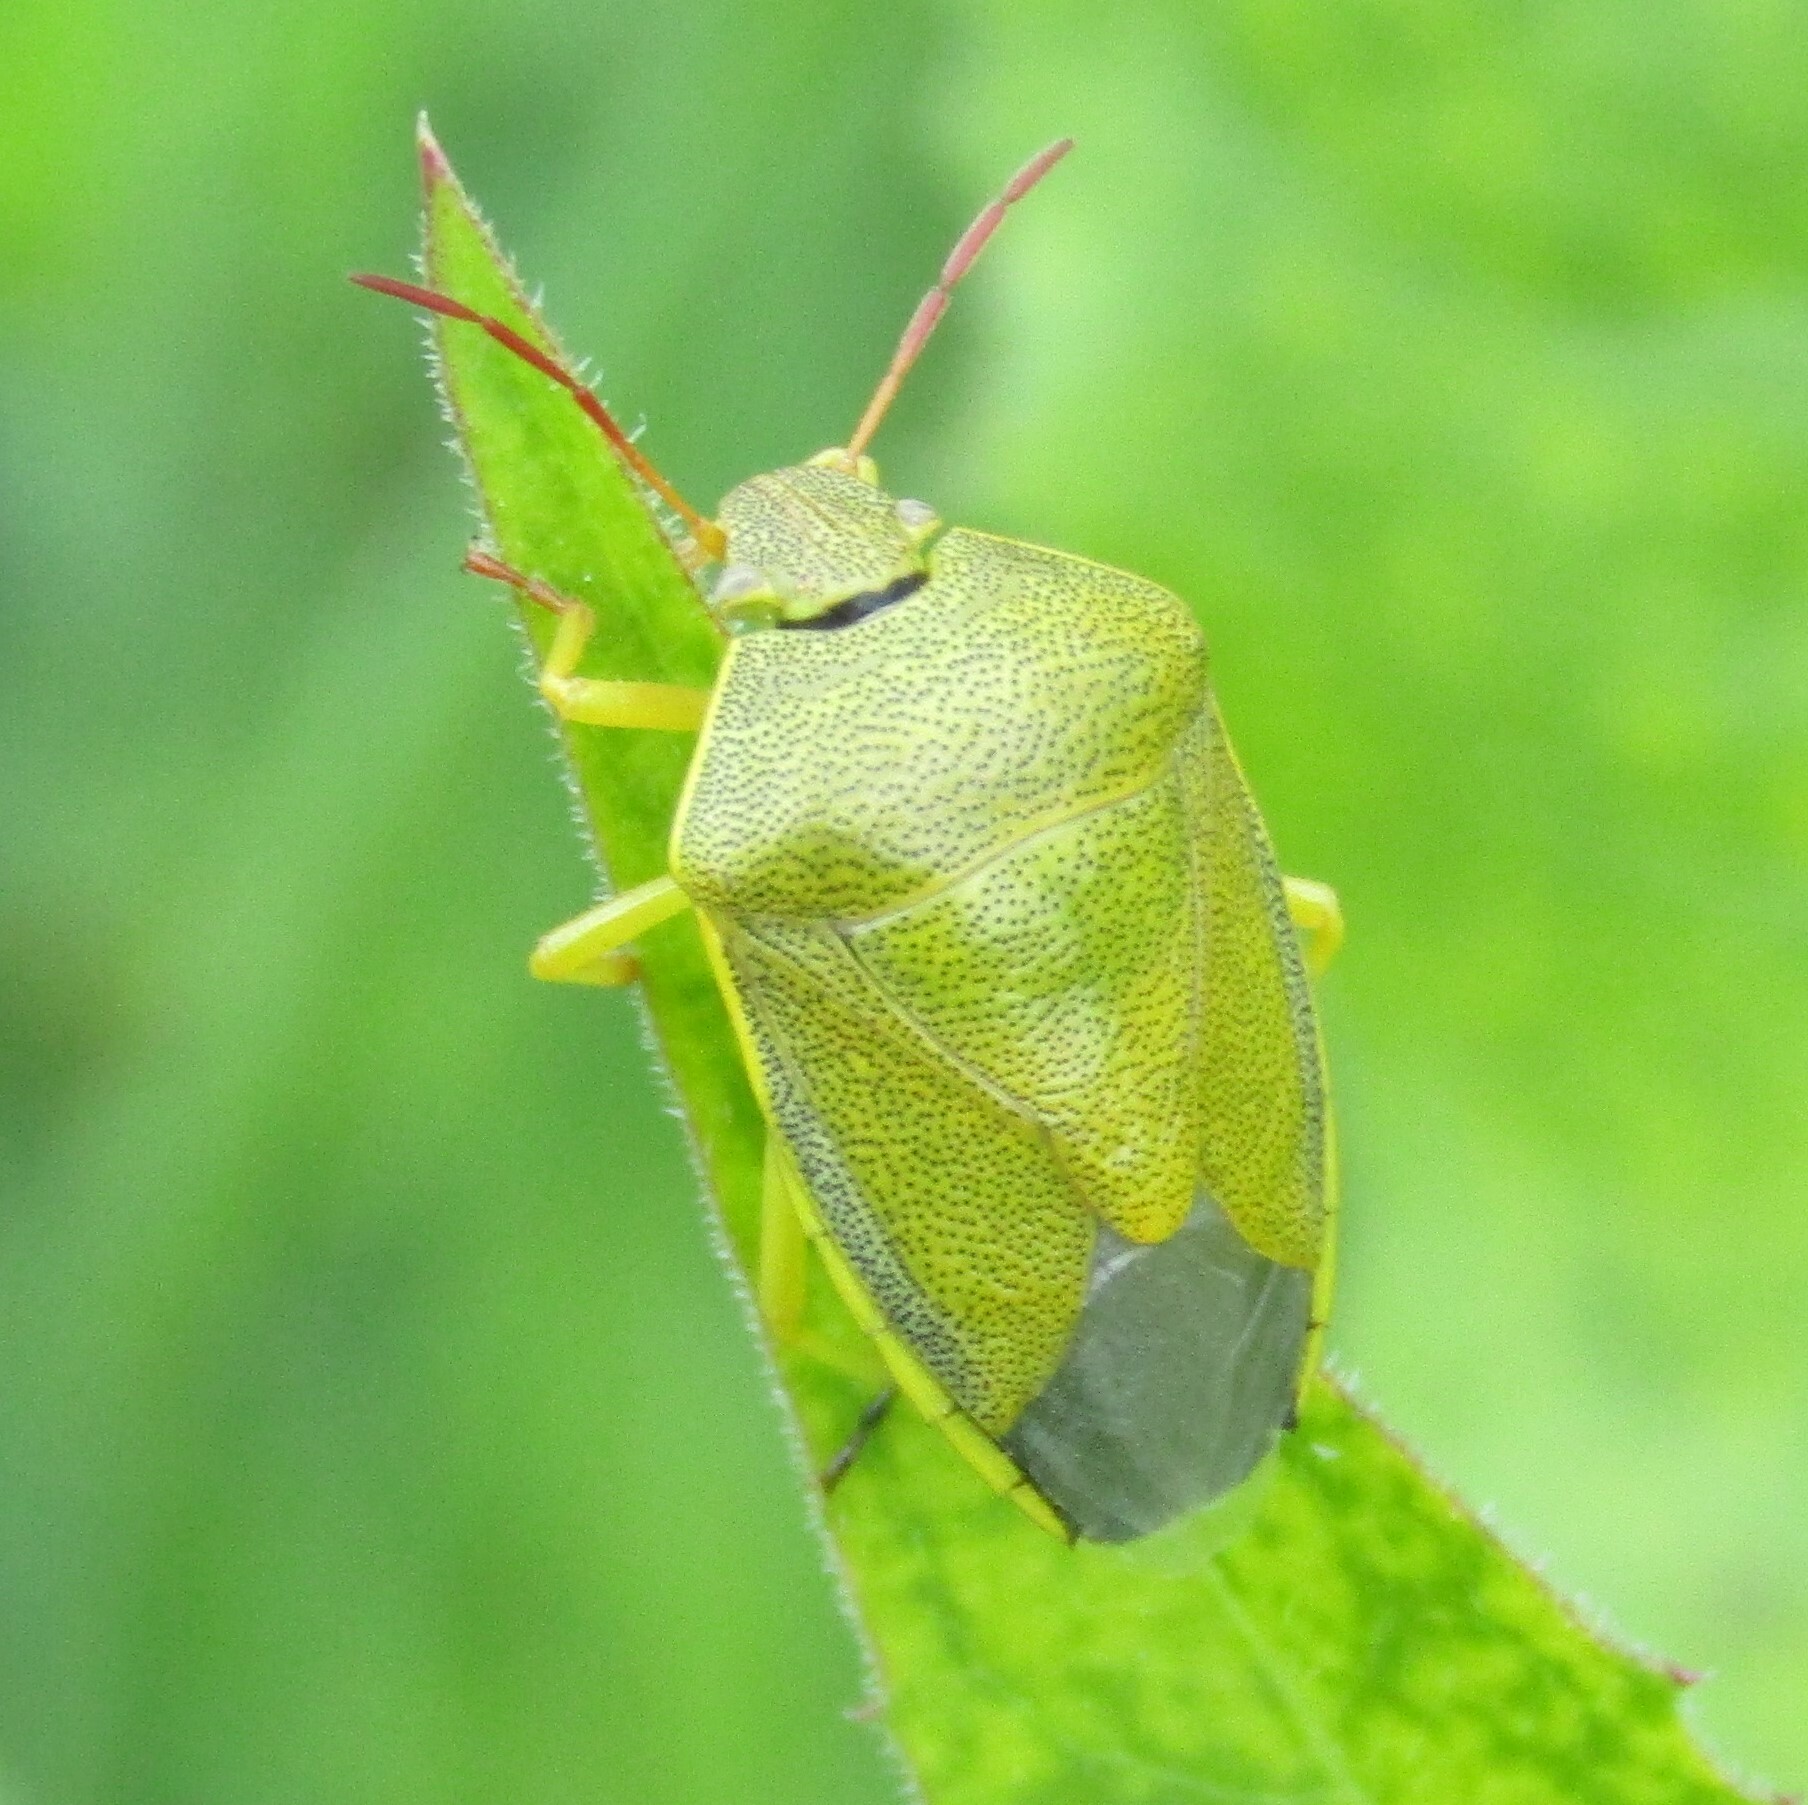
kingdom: Animalia
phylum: Arthropoda
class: Insecta
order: Hemiptera
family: Pentatomidae
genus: Piezodorus
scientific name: Piezodorus lituratus
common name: Stink bug
